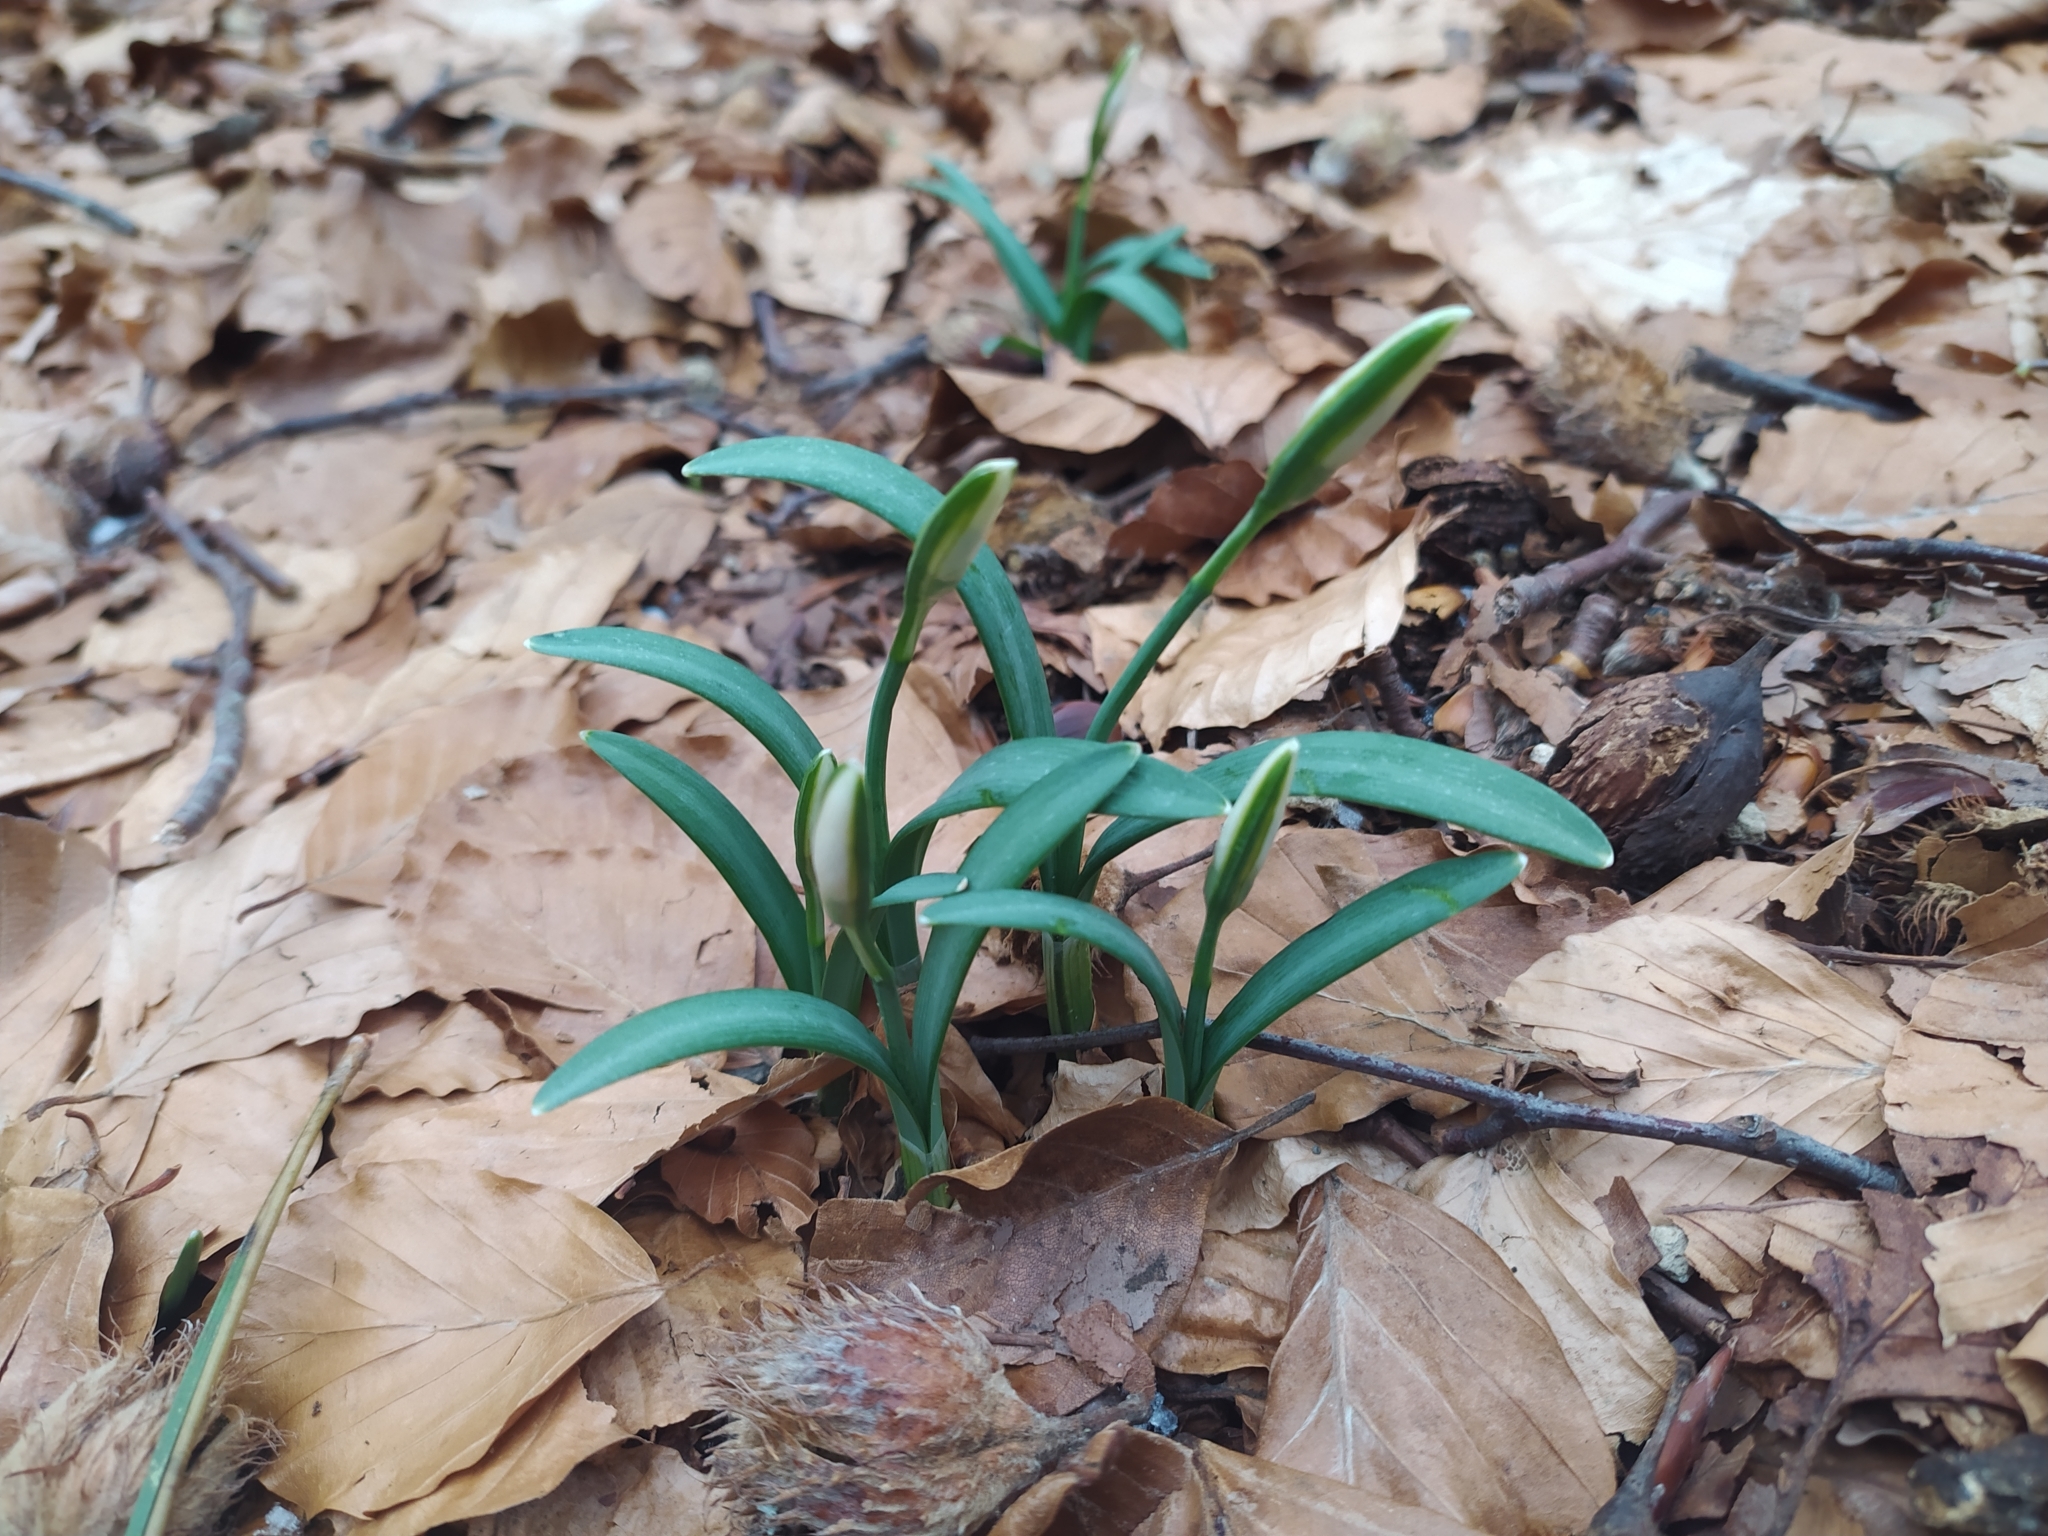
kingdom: Plantae
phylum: Tracheophyta
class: Liliopsida
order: Asparagales
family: Amaryllidaceae
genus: Galanthus
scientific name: Galanthus nivalis
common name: Snowdrop
